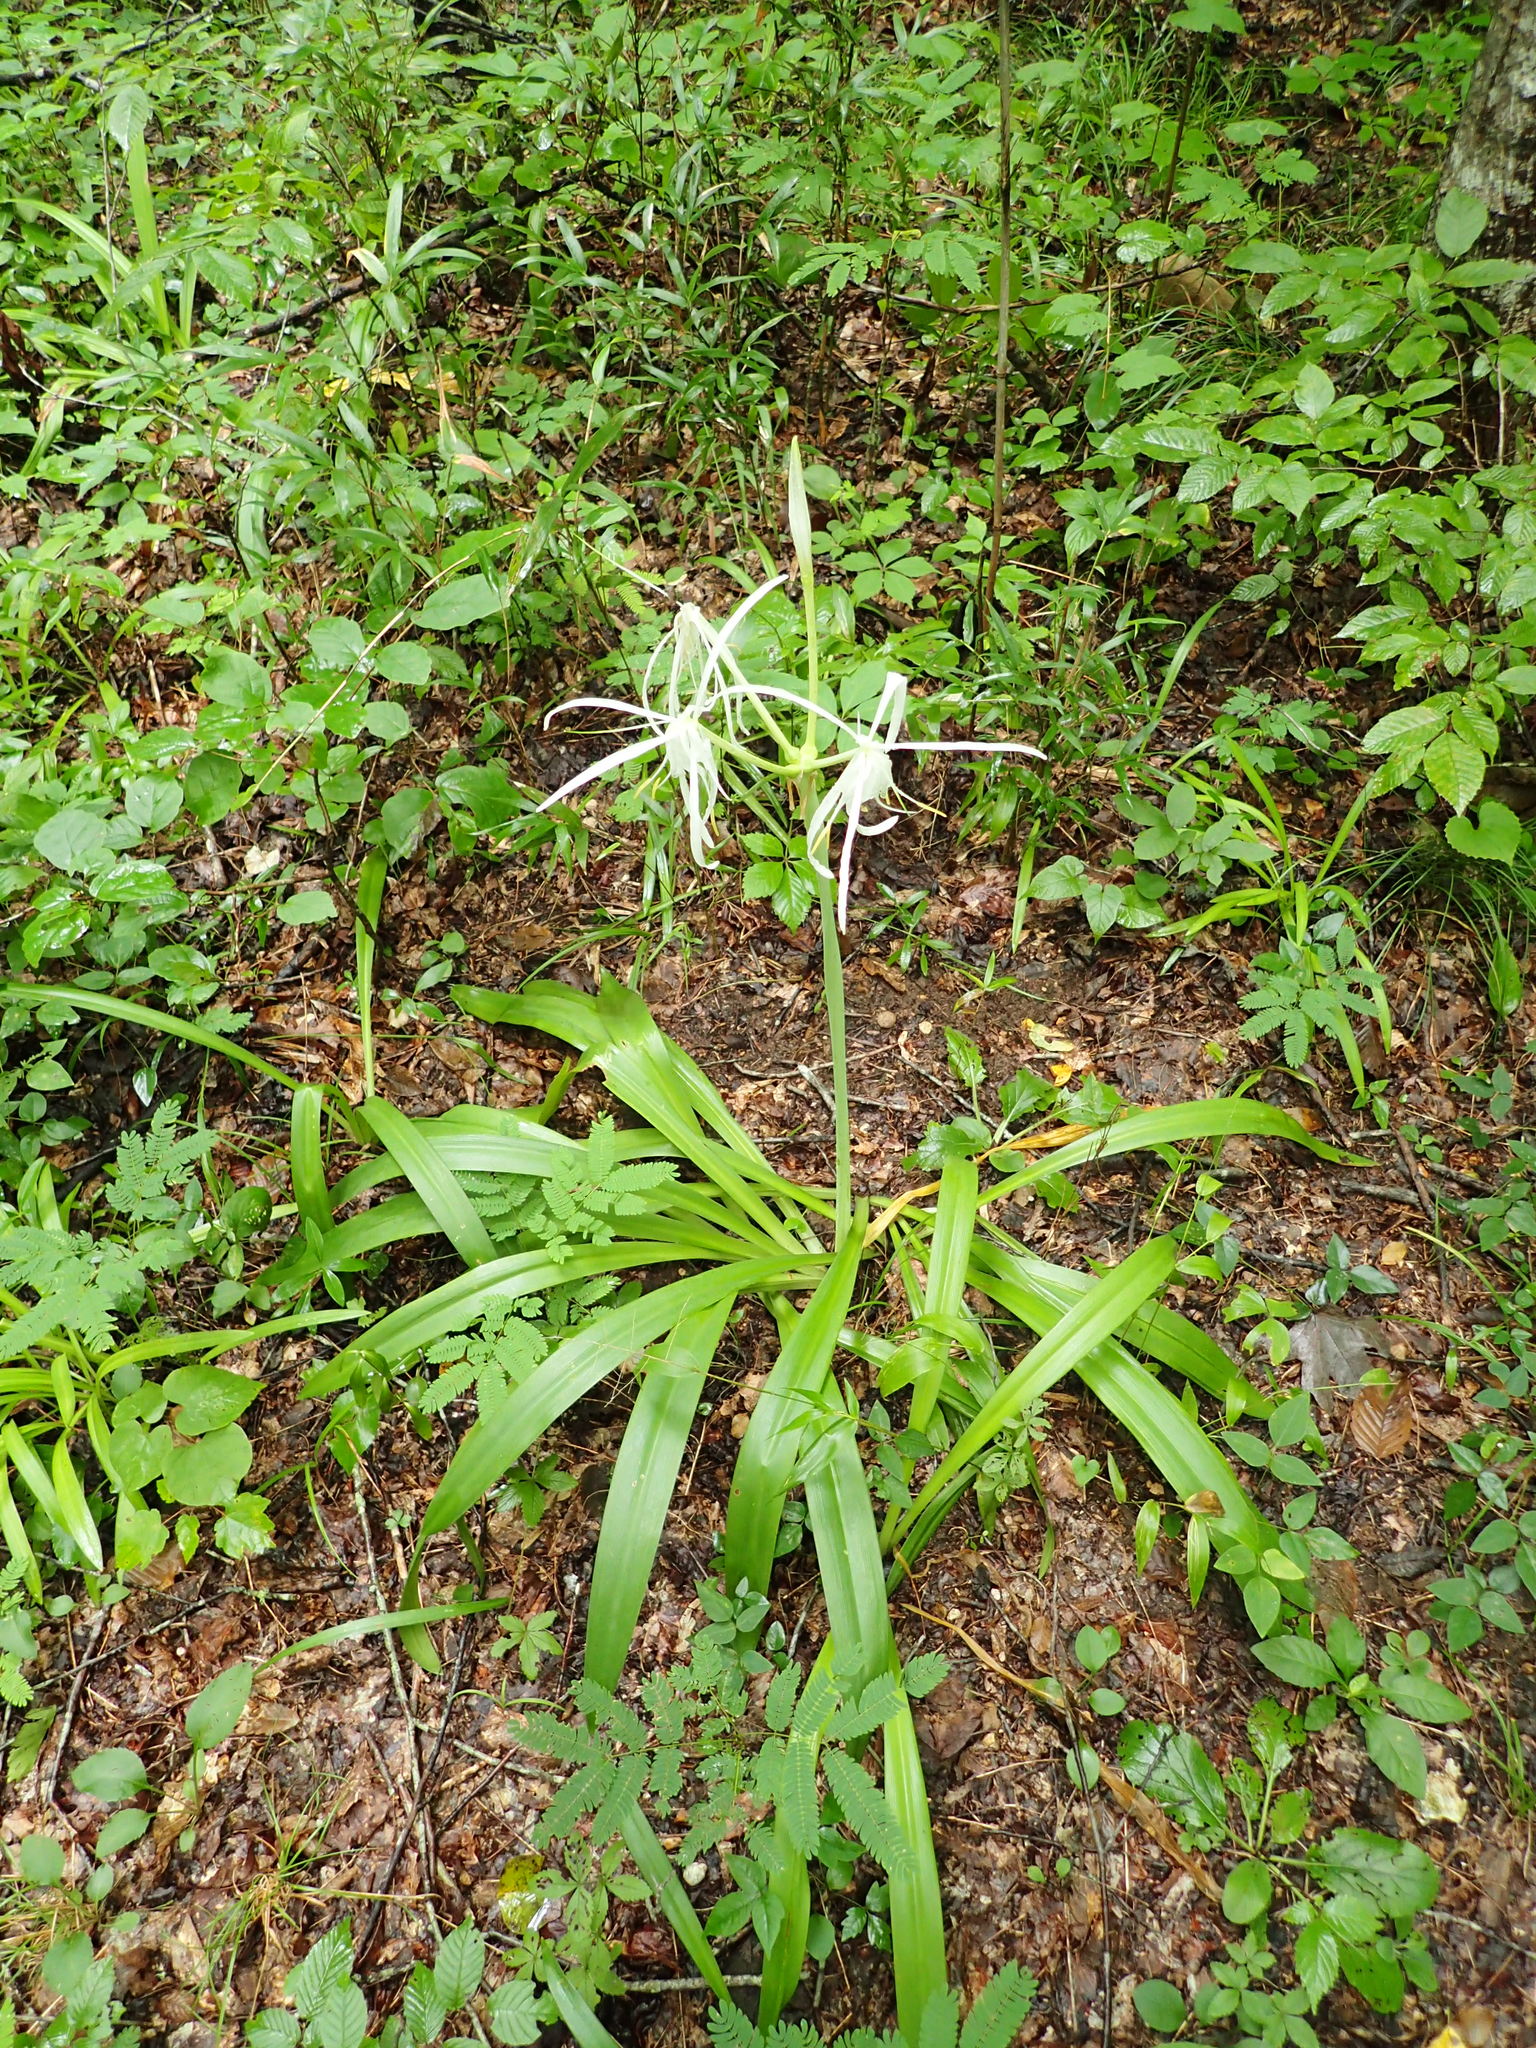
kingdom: Plantae
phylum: Tracheophyta
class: Liliopsida
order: Asparagales
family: Amaryllidaceae
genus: Hymenocallis
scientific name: Hymenocallis occidentalis
